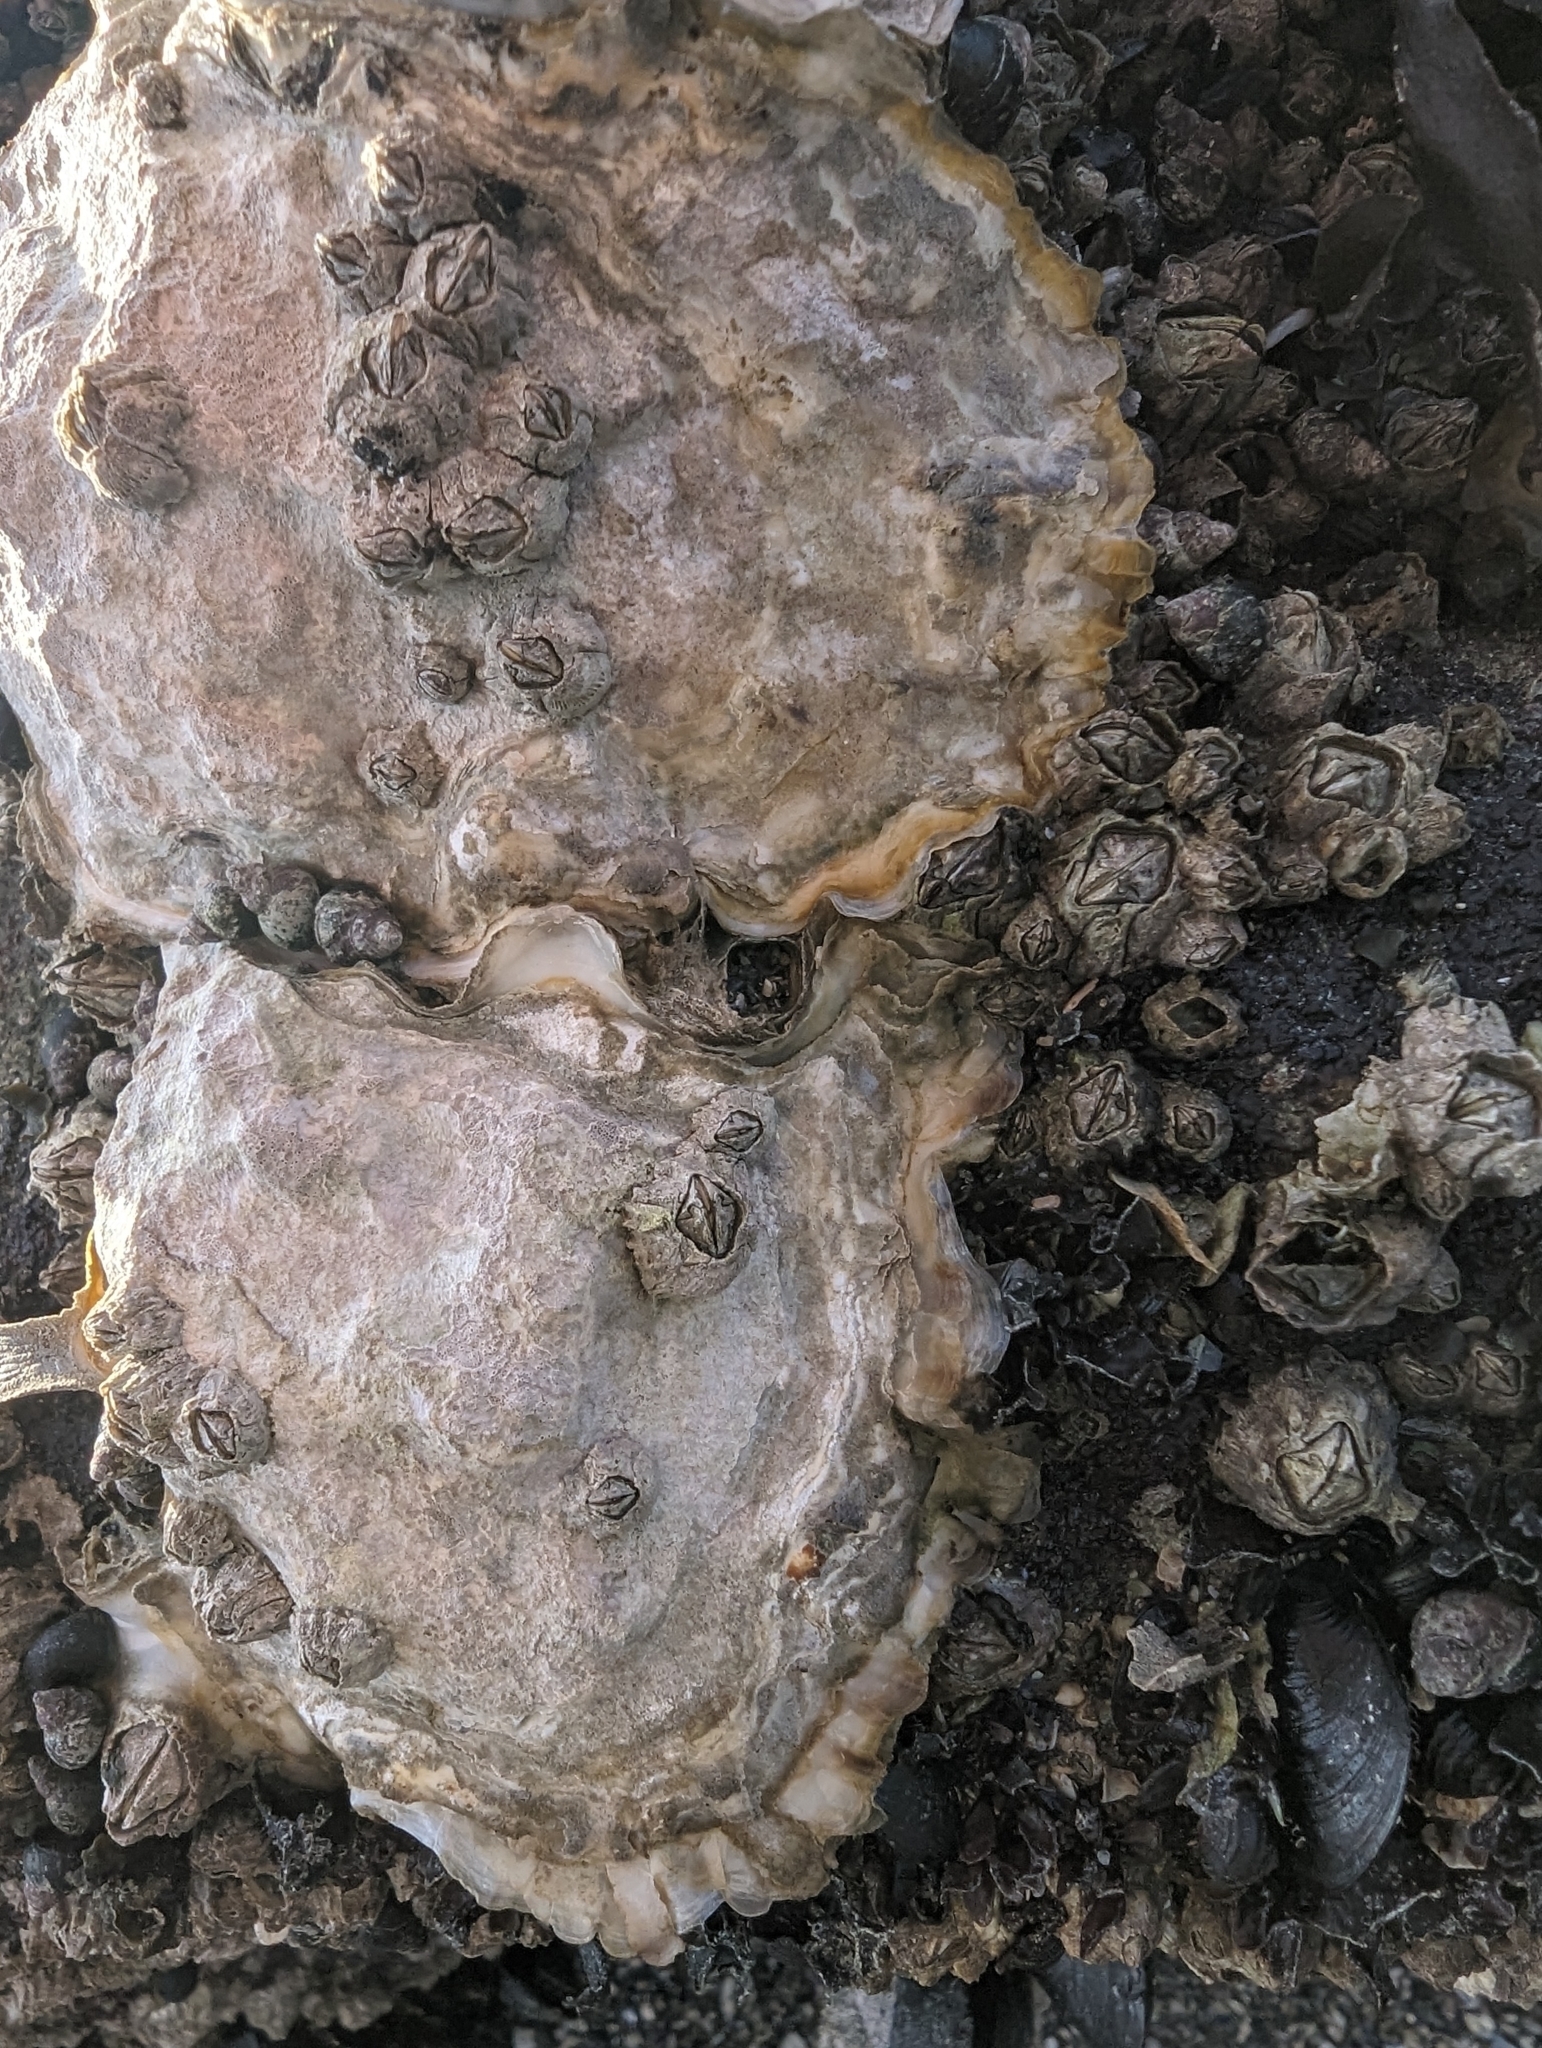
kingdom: Animalia
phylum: Mollusca
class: Bivalvia
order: Ostreida
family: Ostreidae
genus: Magallana
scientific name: Magallana gigas
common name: Pacific oyster
